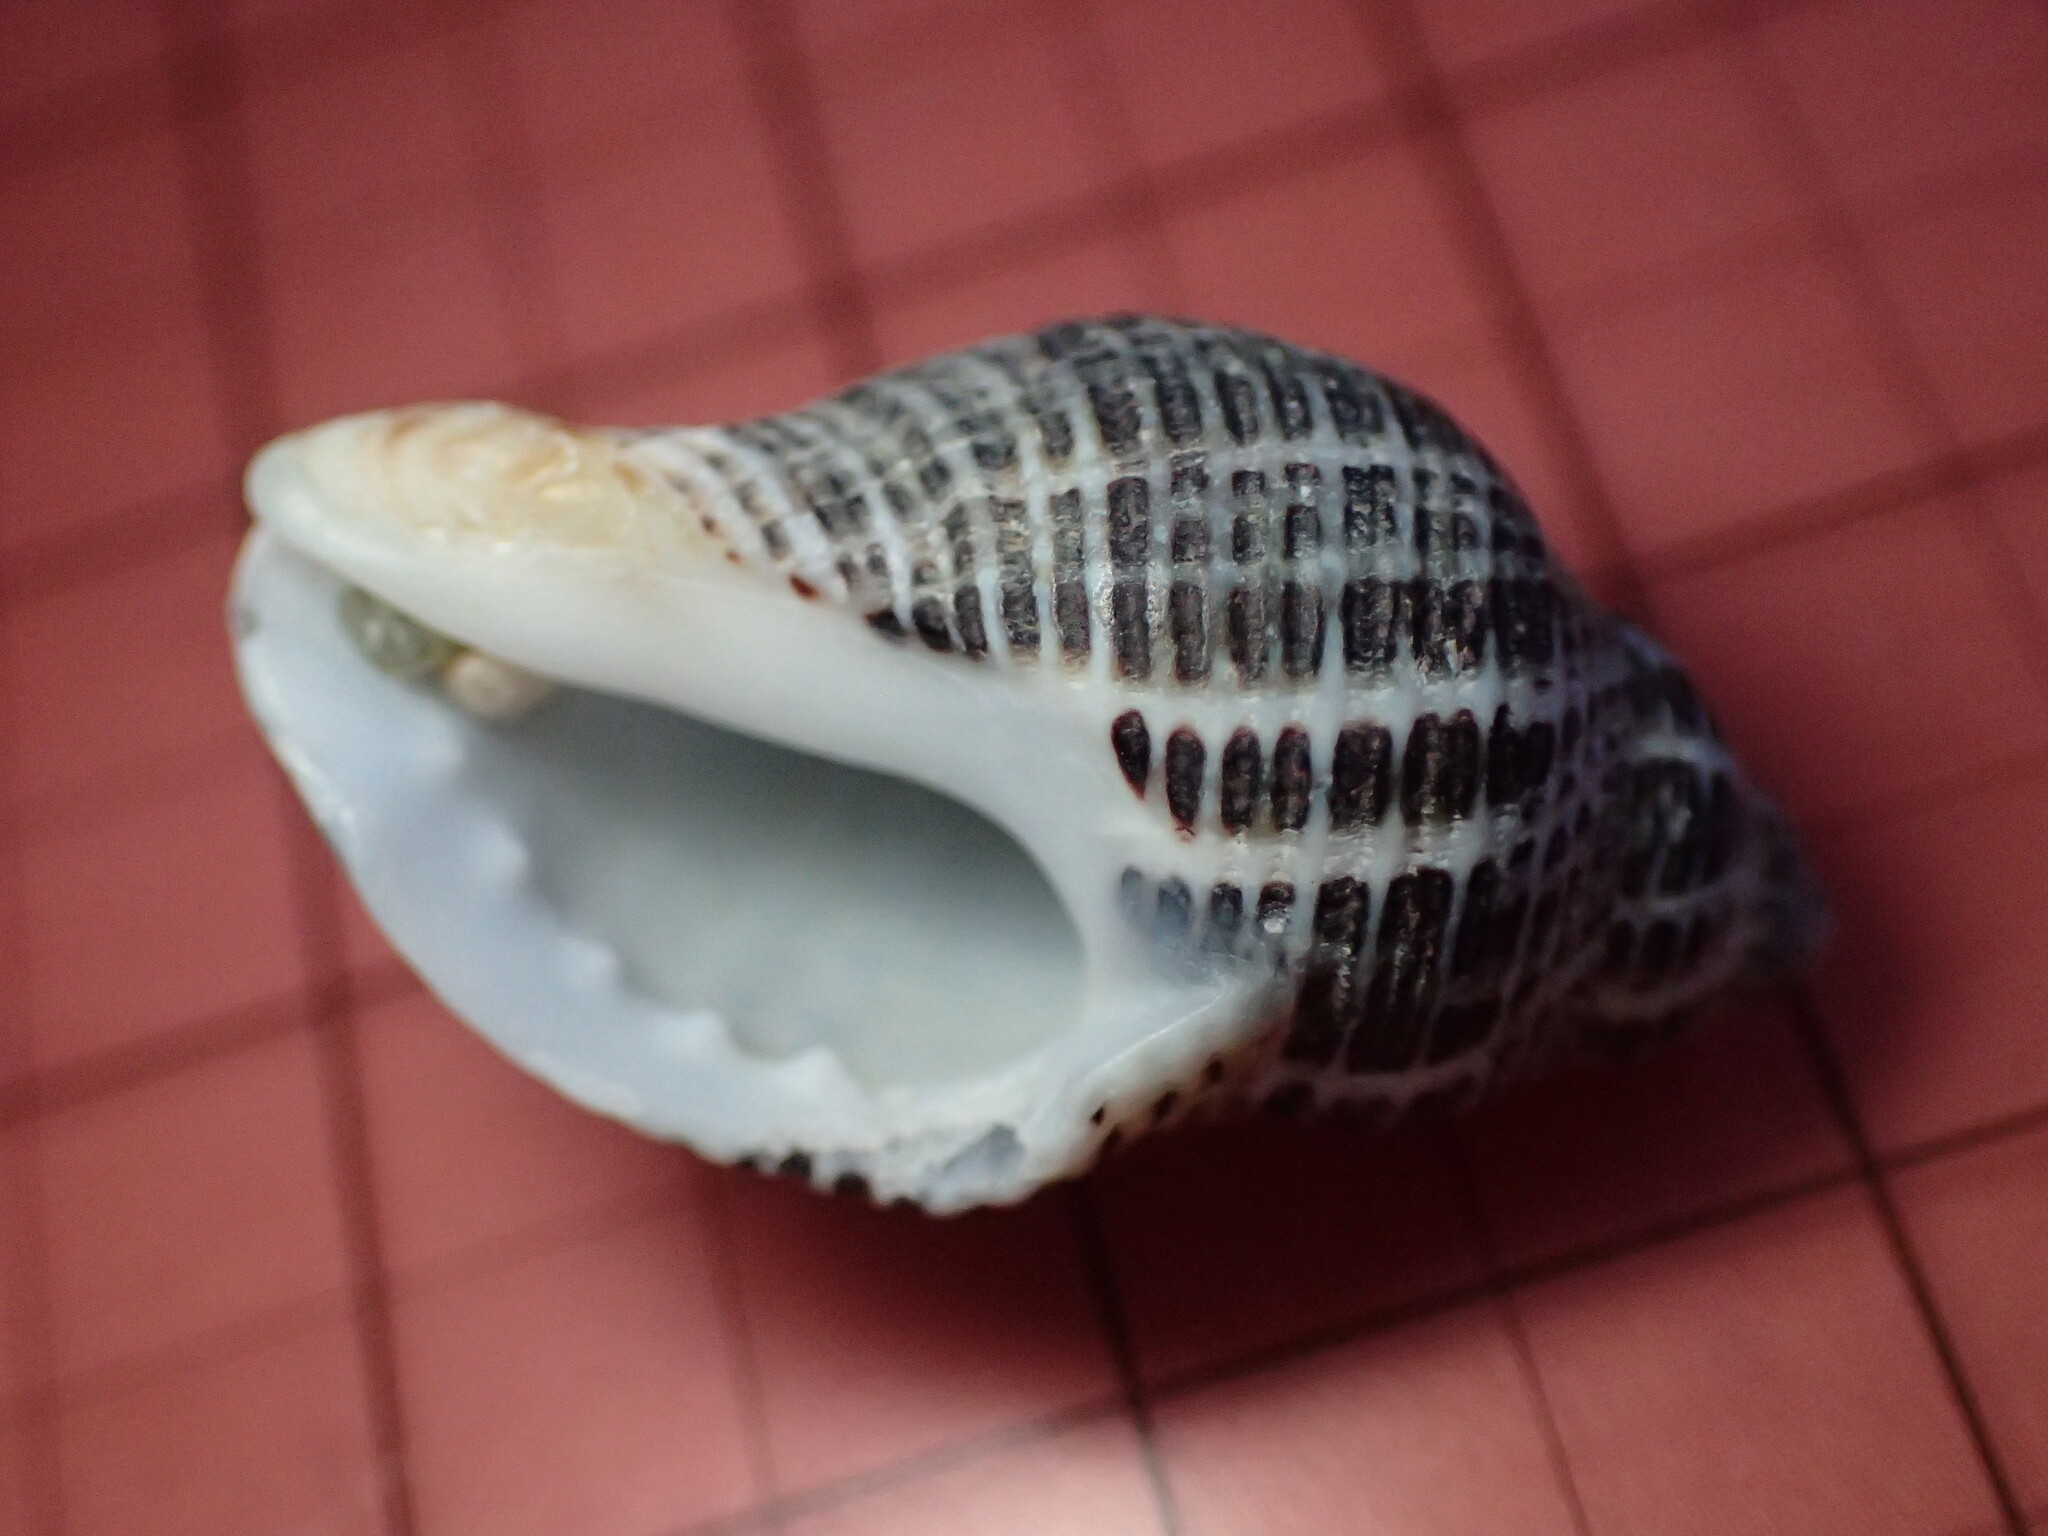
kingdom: Animalia
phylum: Mollusca
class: Gastropoda
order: Neogastropoda
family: Muricidae
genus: Acanthinucella
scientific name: Acanthinucella spirata
